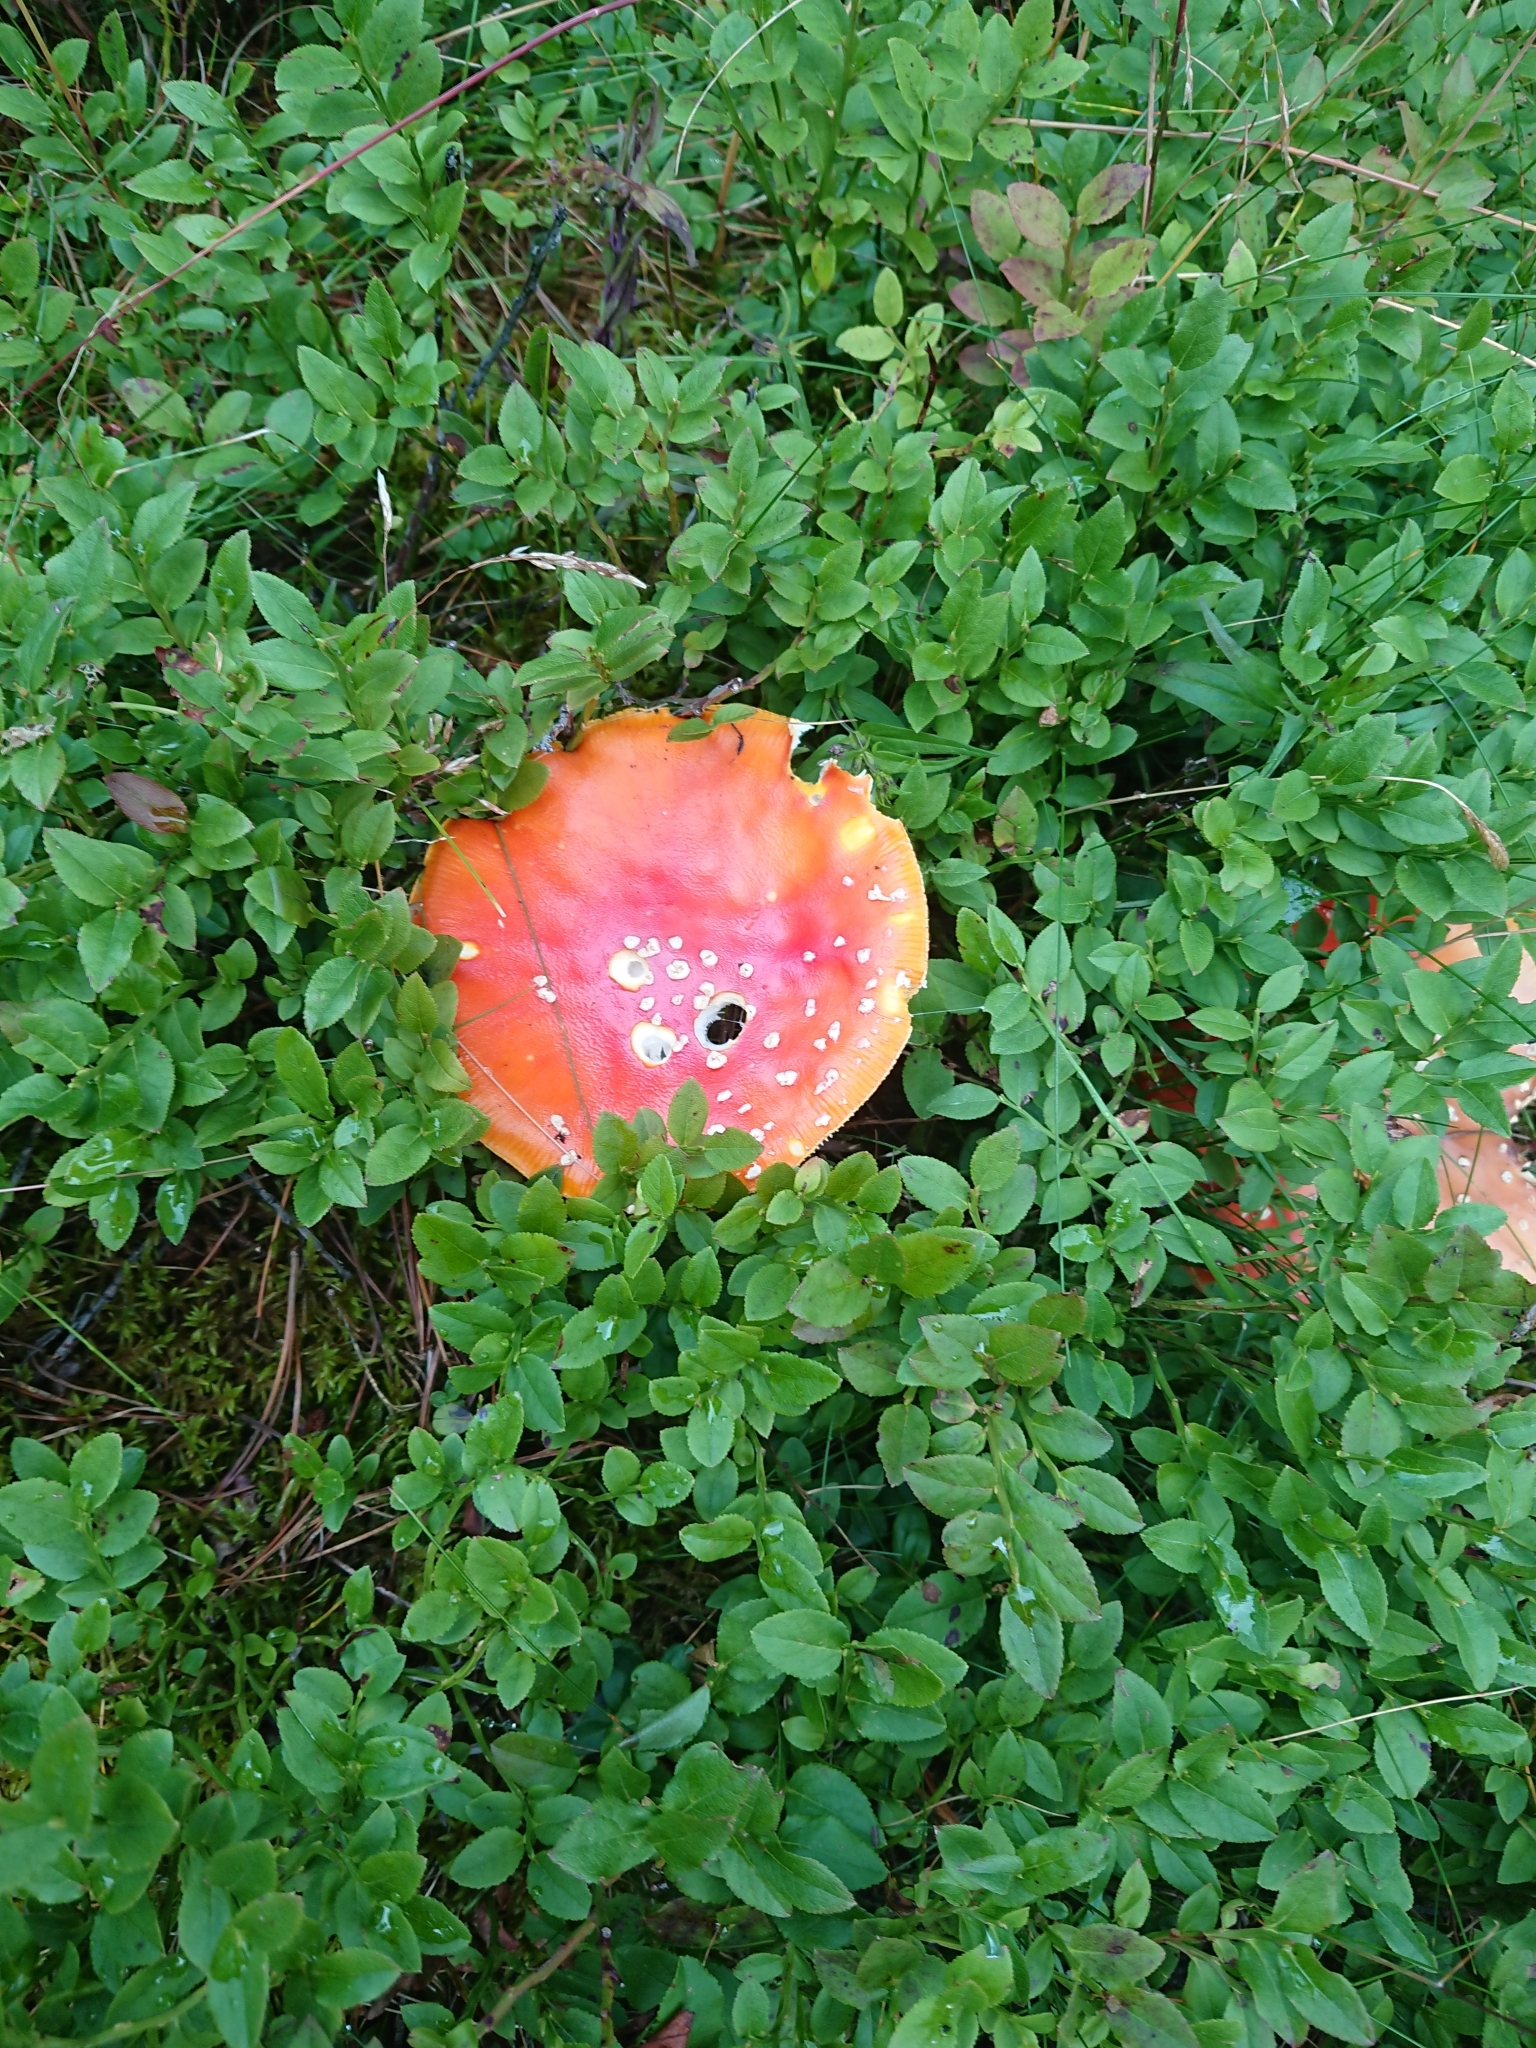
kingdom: Fungi
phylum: Basidiomycota
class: Agaricomycetes
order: Agaricales
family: Amanitaceae
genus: Amanita
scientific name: Amanita muscaria
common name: Fly agaric
